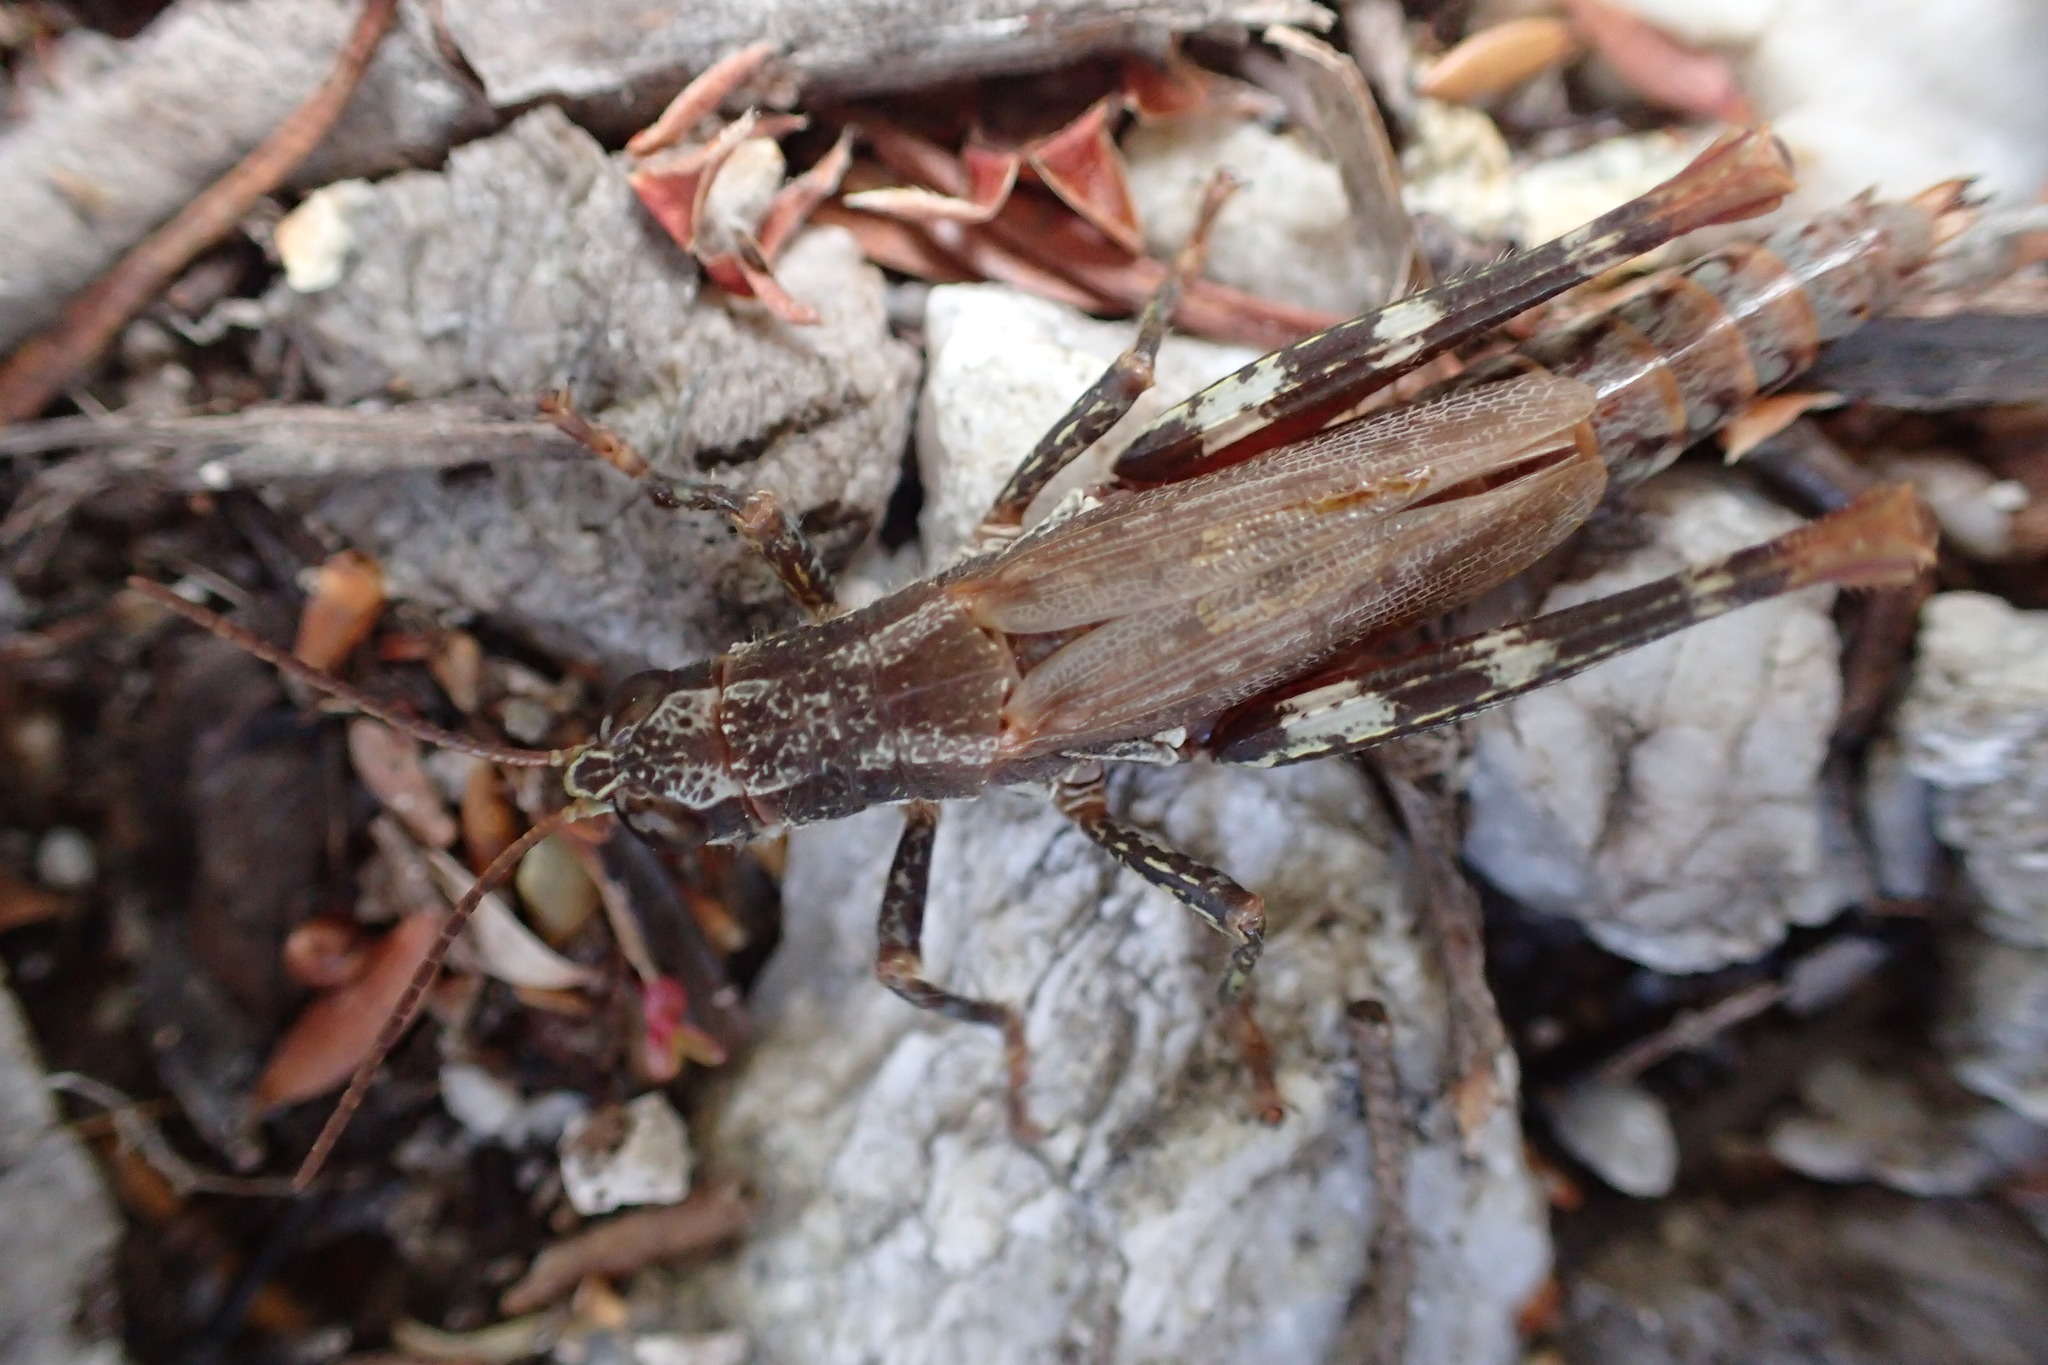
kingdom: Animalia
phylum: Arthropoda
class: Insecta
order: Orthoptera
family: Acrididae
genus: Truganinia
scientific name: Truganinia bauerae
